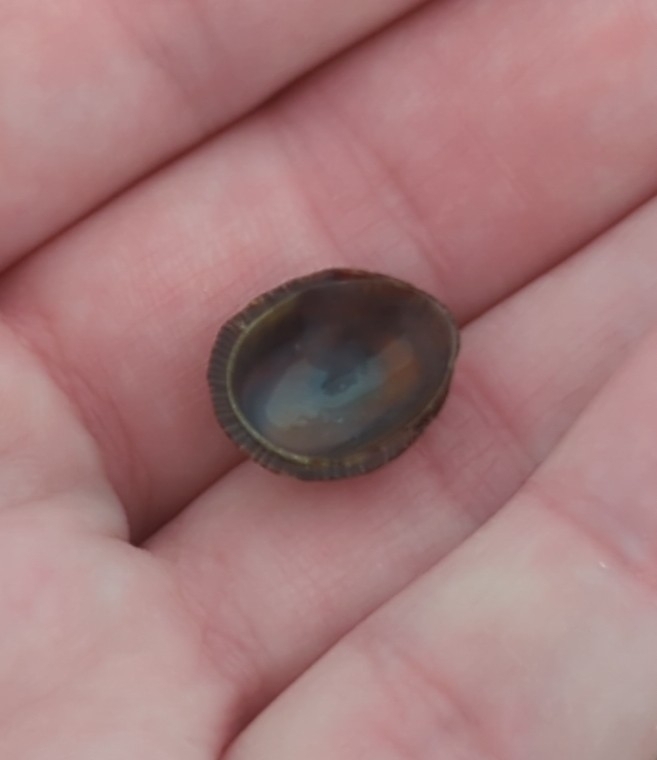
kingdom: Animalia
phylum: Mollusca
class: Gastropoda
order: Siphonariida
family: Siphonariidae
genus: Siphonaria
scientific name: Siphonaria naufragum
